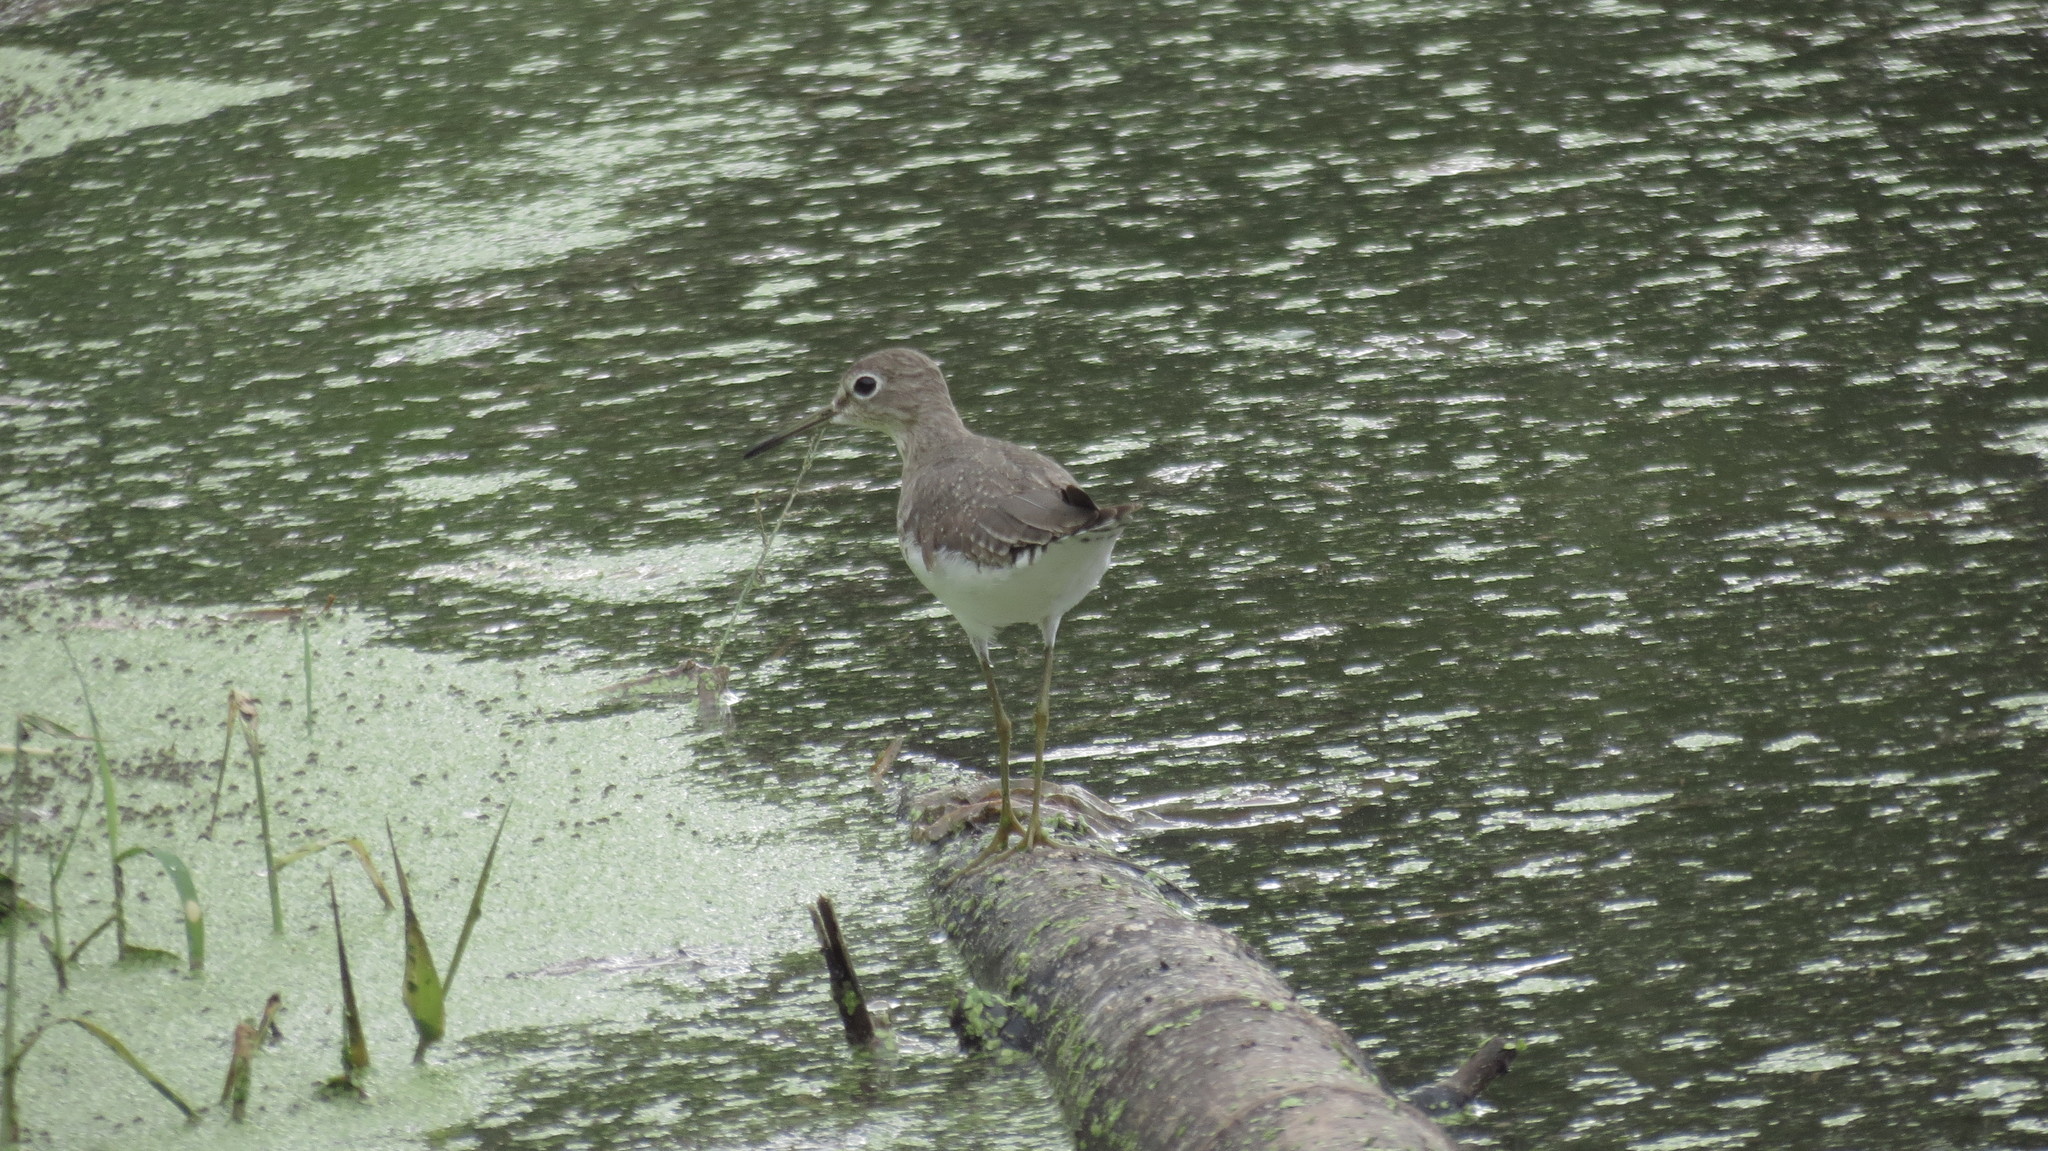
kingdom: Animalia
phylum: Chordata
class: Aves
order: Charadriiformes
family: Scolopacidae
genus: Tringa
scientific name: Tringa solitaria
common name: Solitary sandpiper
